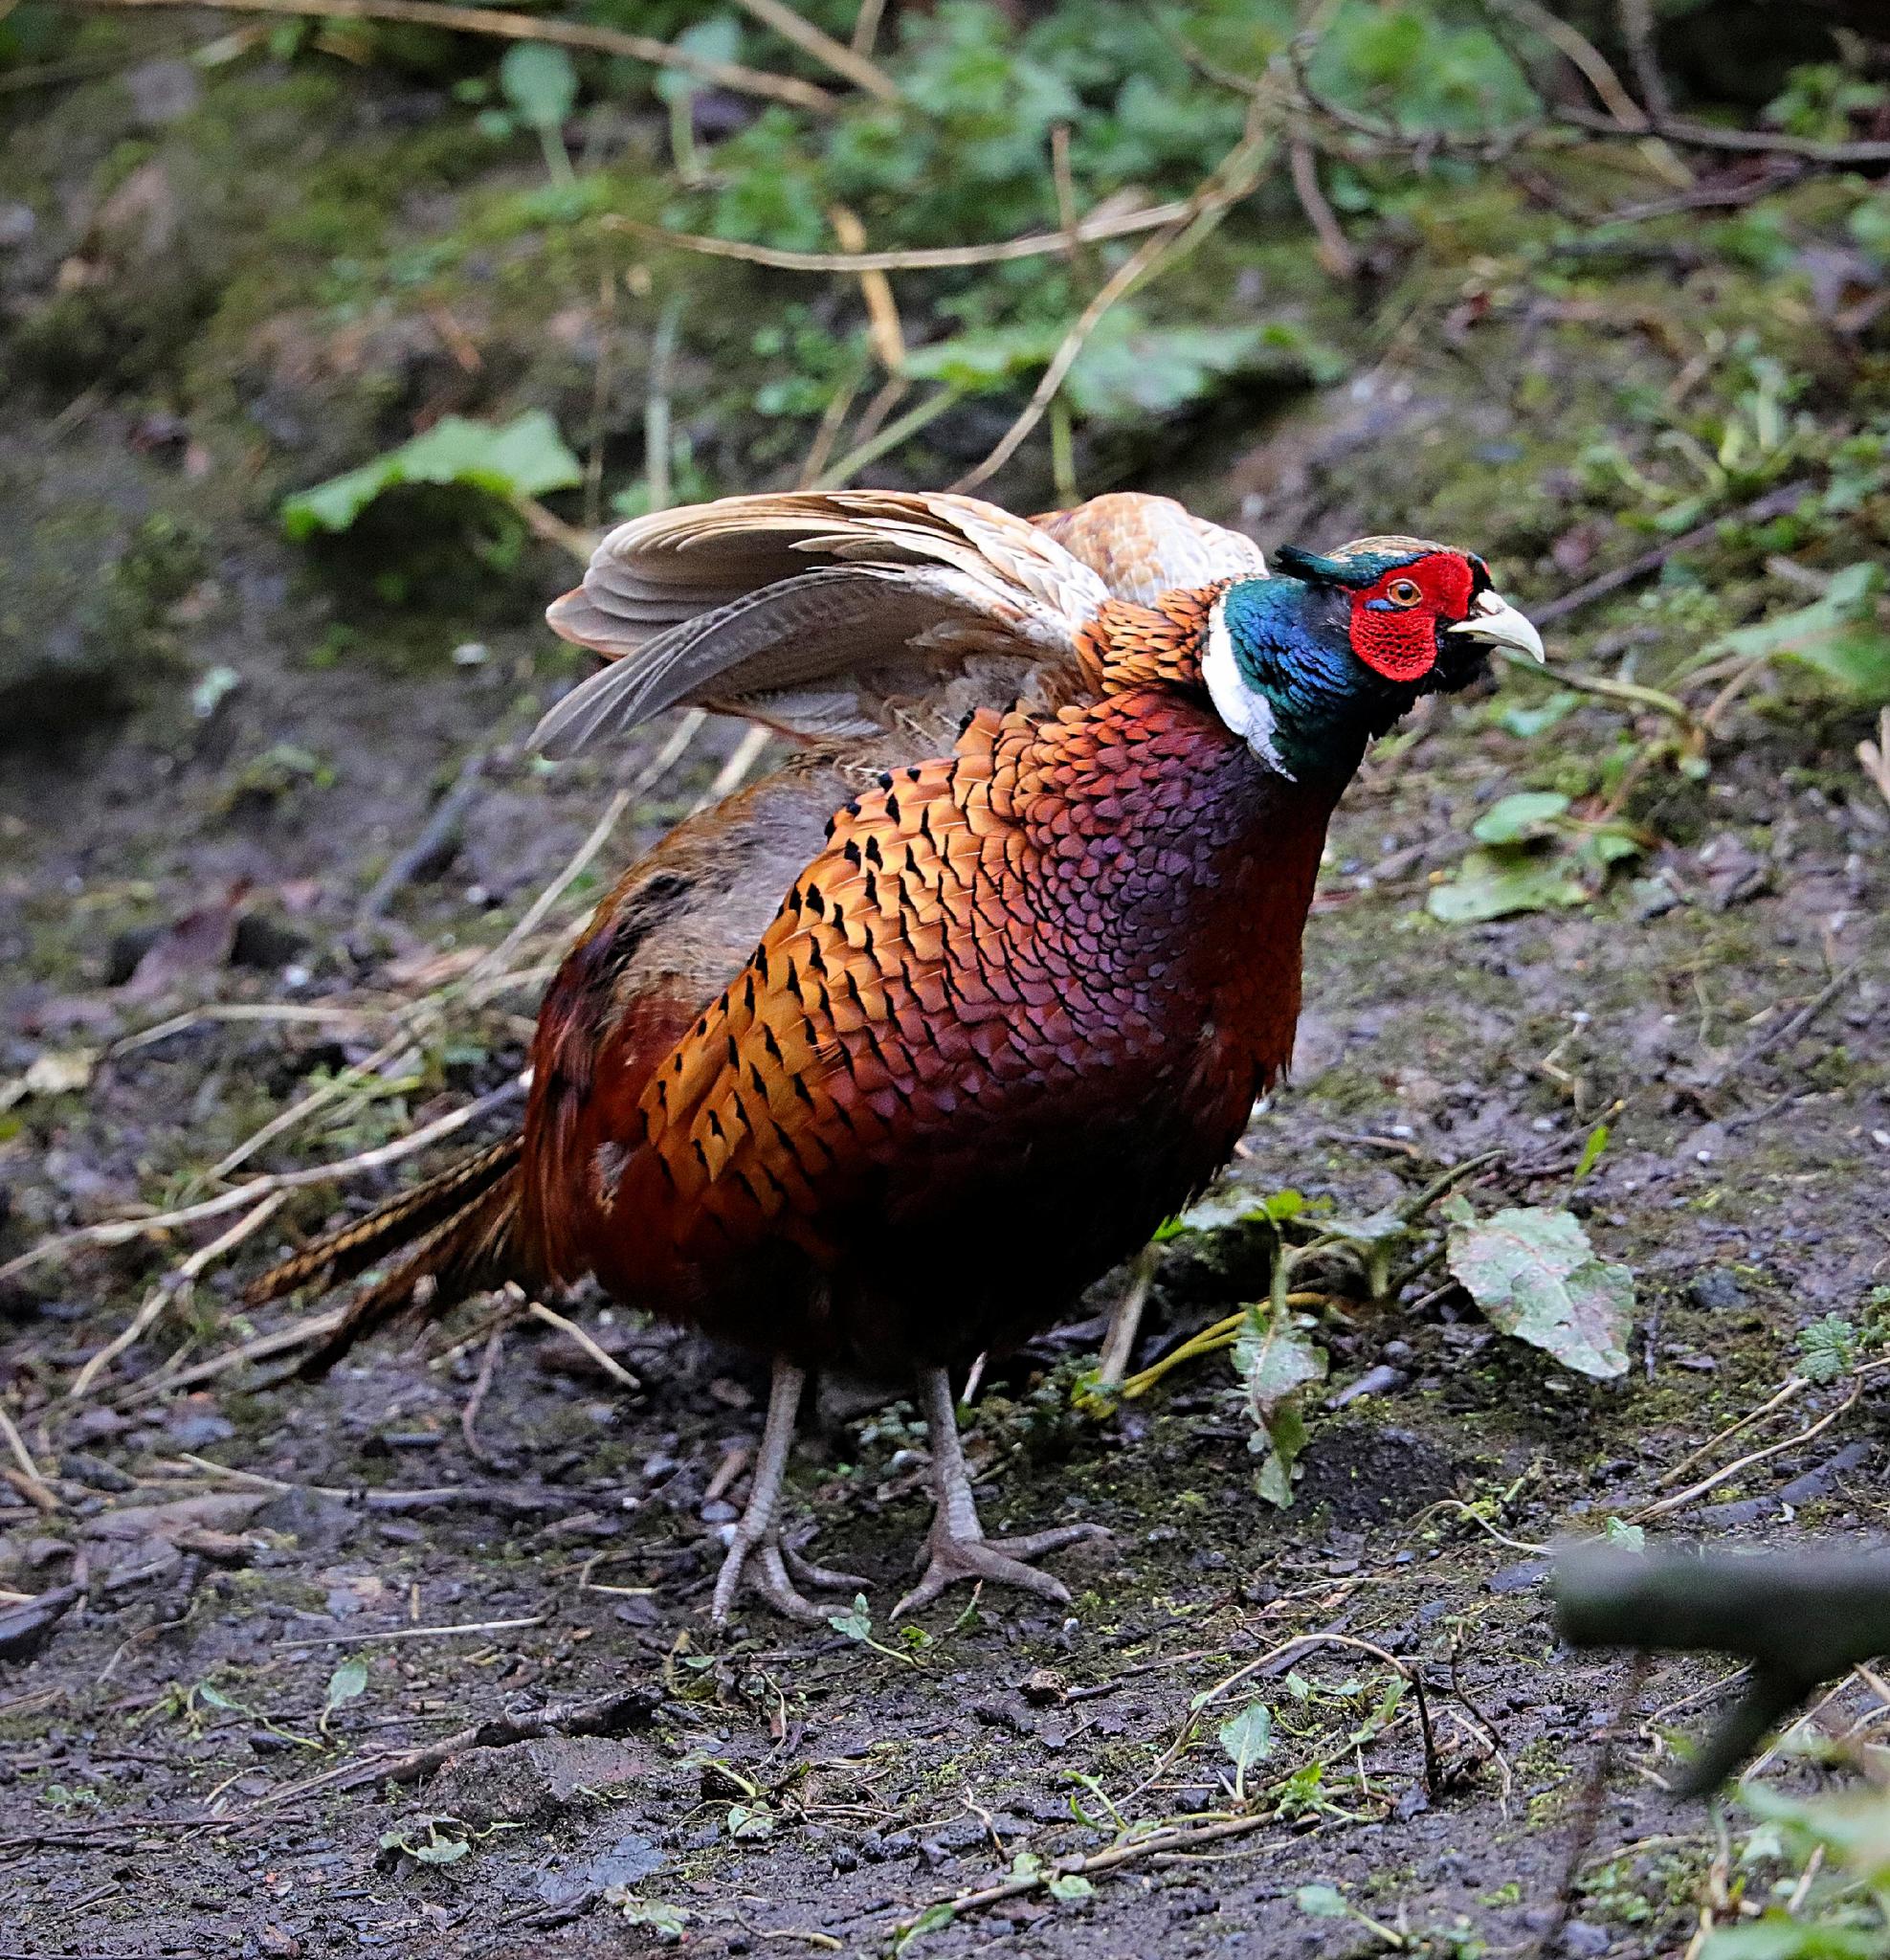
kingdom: Animalia
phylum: Chordata
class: Aves
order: Galliformes
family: Phasianidae
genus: Phasianus
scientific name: Phasianus colchicus
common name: Common pheasant
